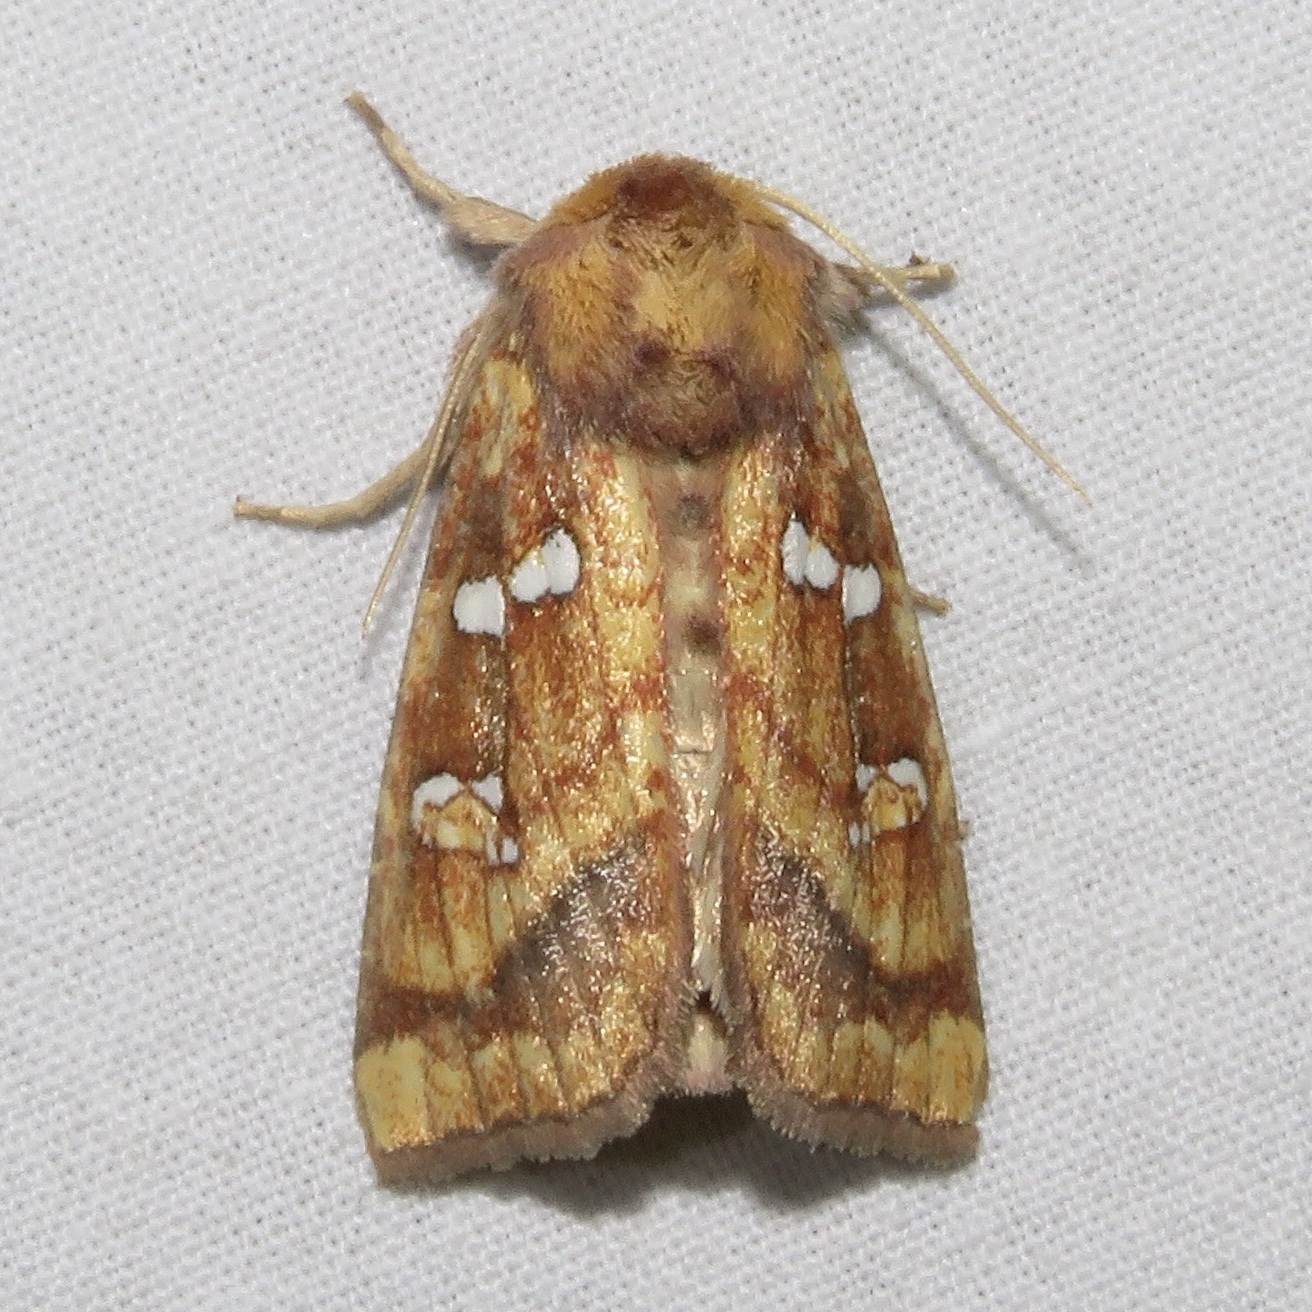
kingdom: Animalia
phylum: Arthropoda
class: Insecta
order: Lepidoptera
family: Noctuidae
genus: Papaipema
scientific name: Papaipema pterisii
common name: Bracken borer moth
